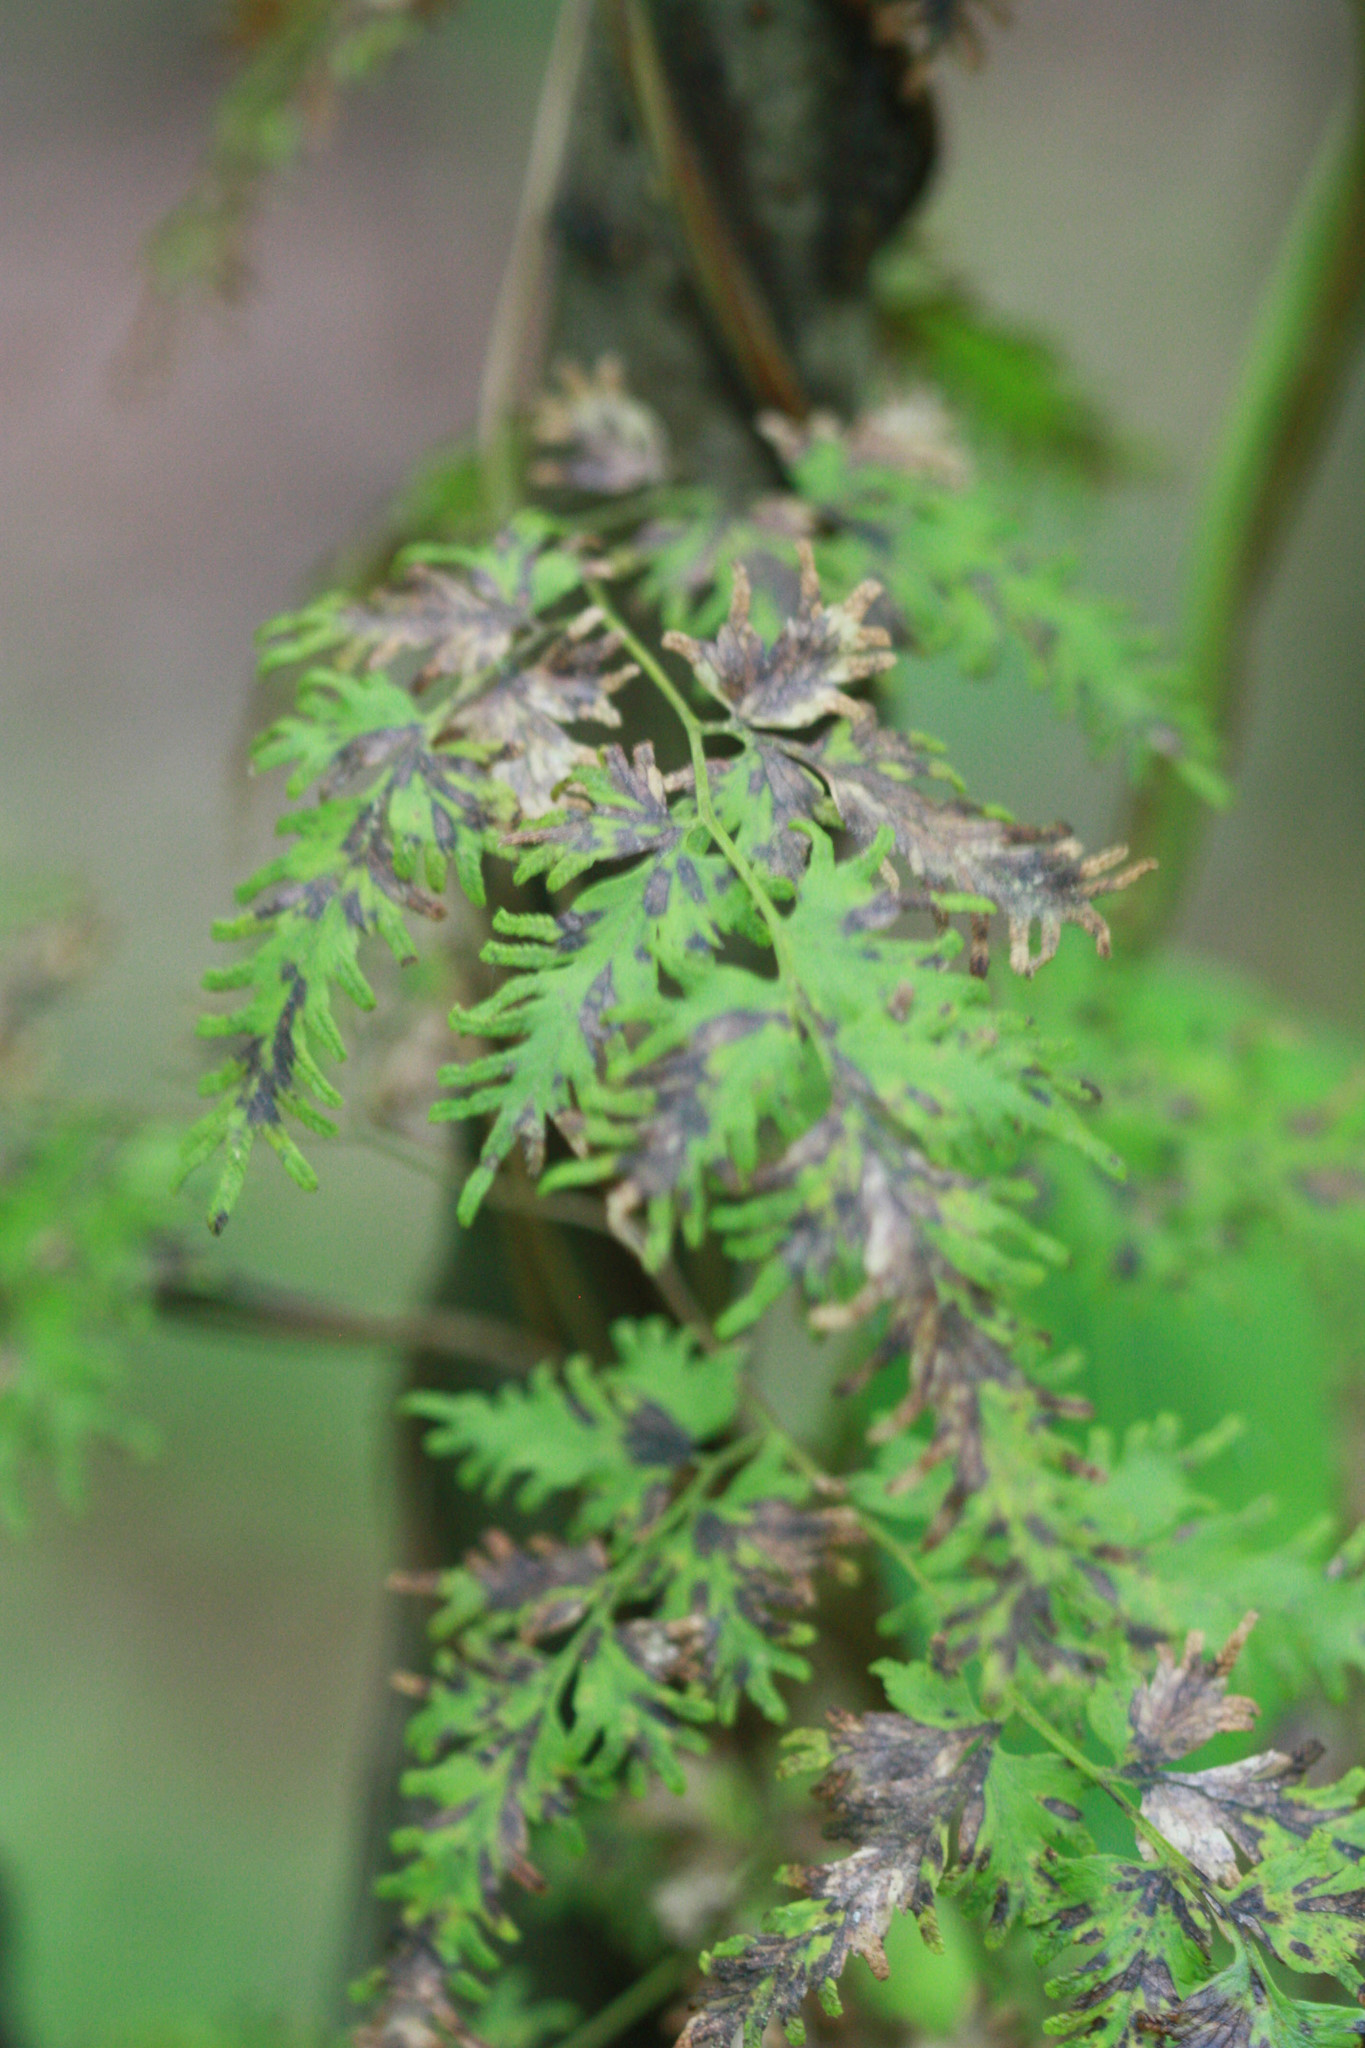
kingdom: Plantae
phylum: Tracheophyta
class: Polypodiopsida
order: Schizaeales
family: Lygodiaceae
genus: Lygodium
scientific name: Lygodium japonicum
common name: Japanese climbing fern
